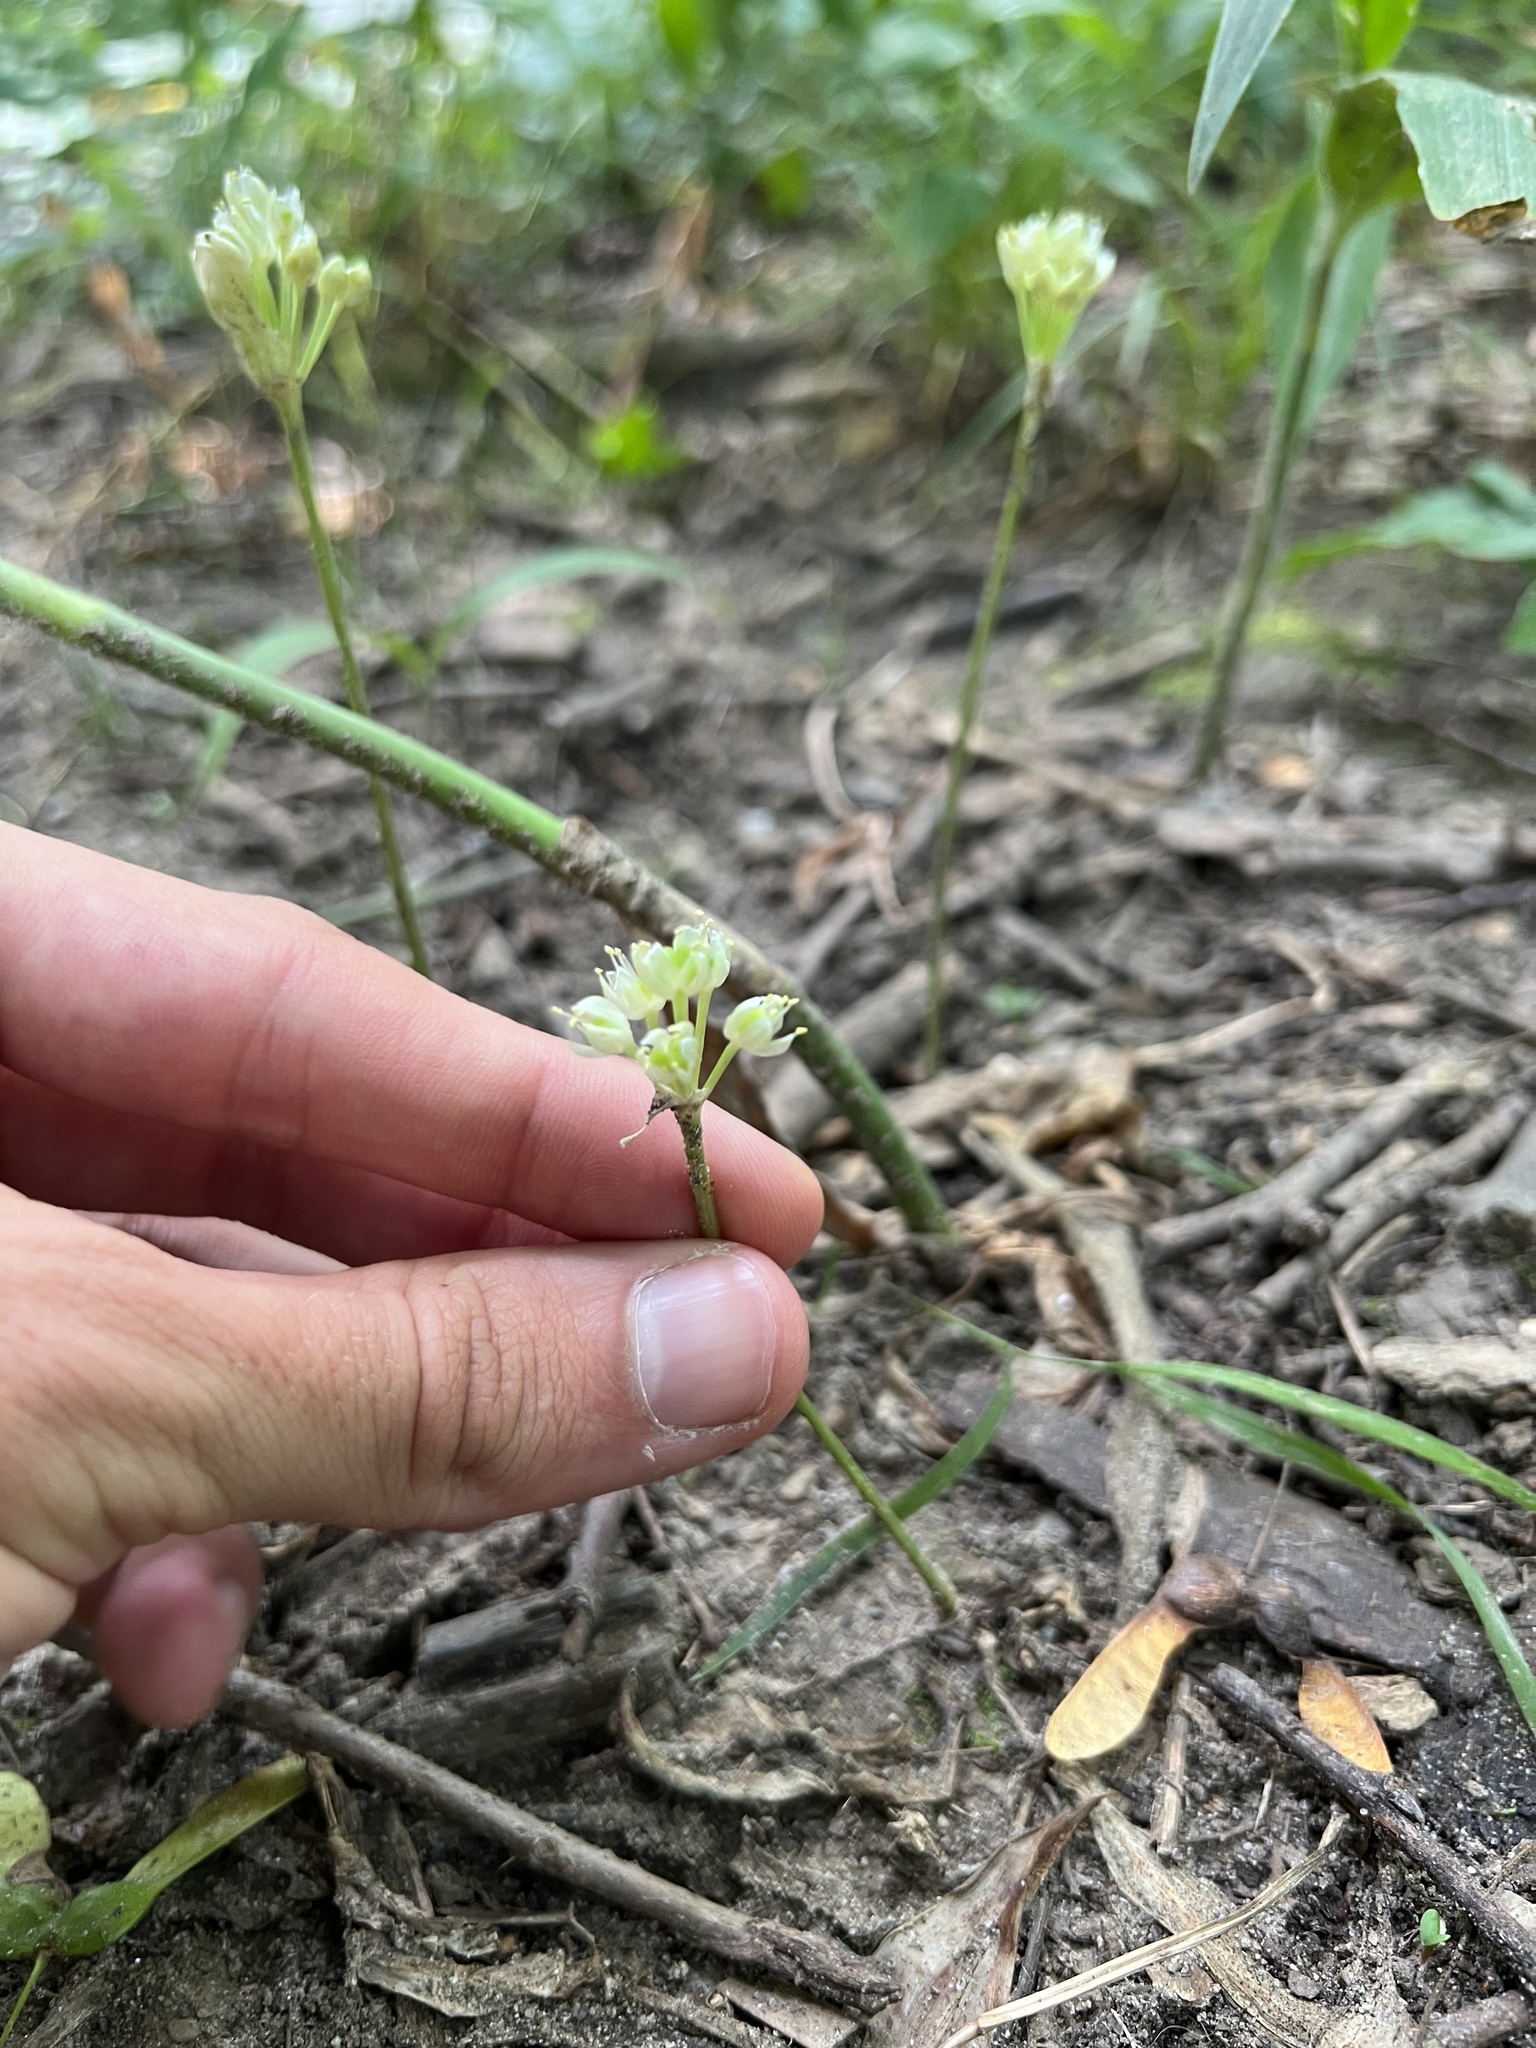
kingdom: Plantae
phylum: Tracheophyta
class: Liliopsida
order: Asparagales
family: Amaryllidaceae
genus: Allium
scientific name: Allium tricoccum
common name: Ramp
